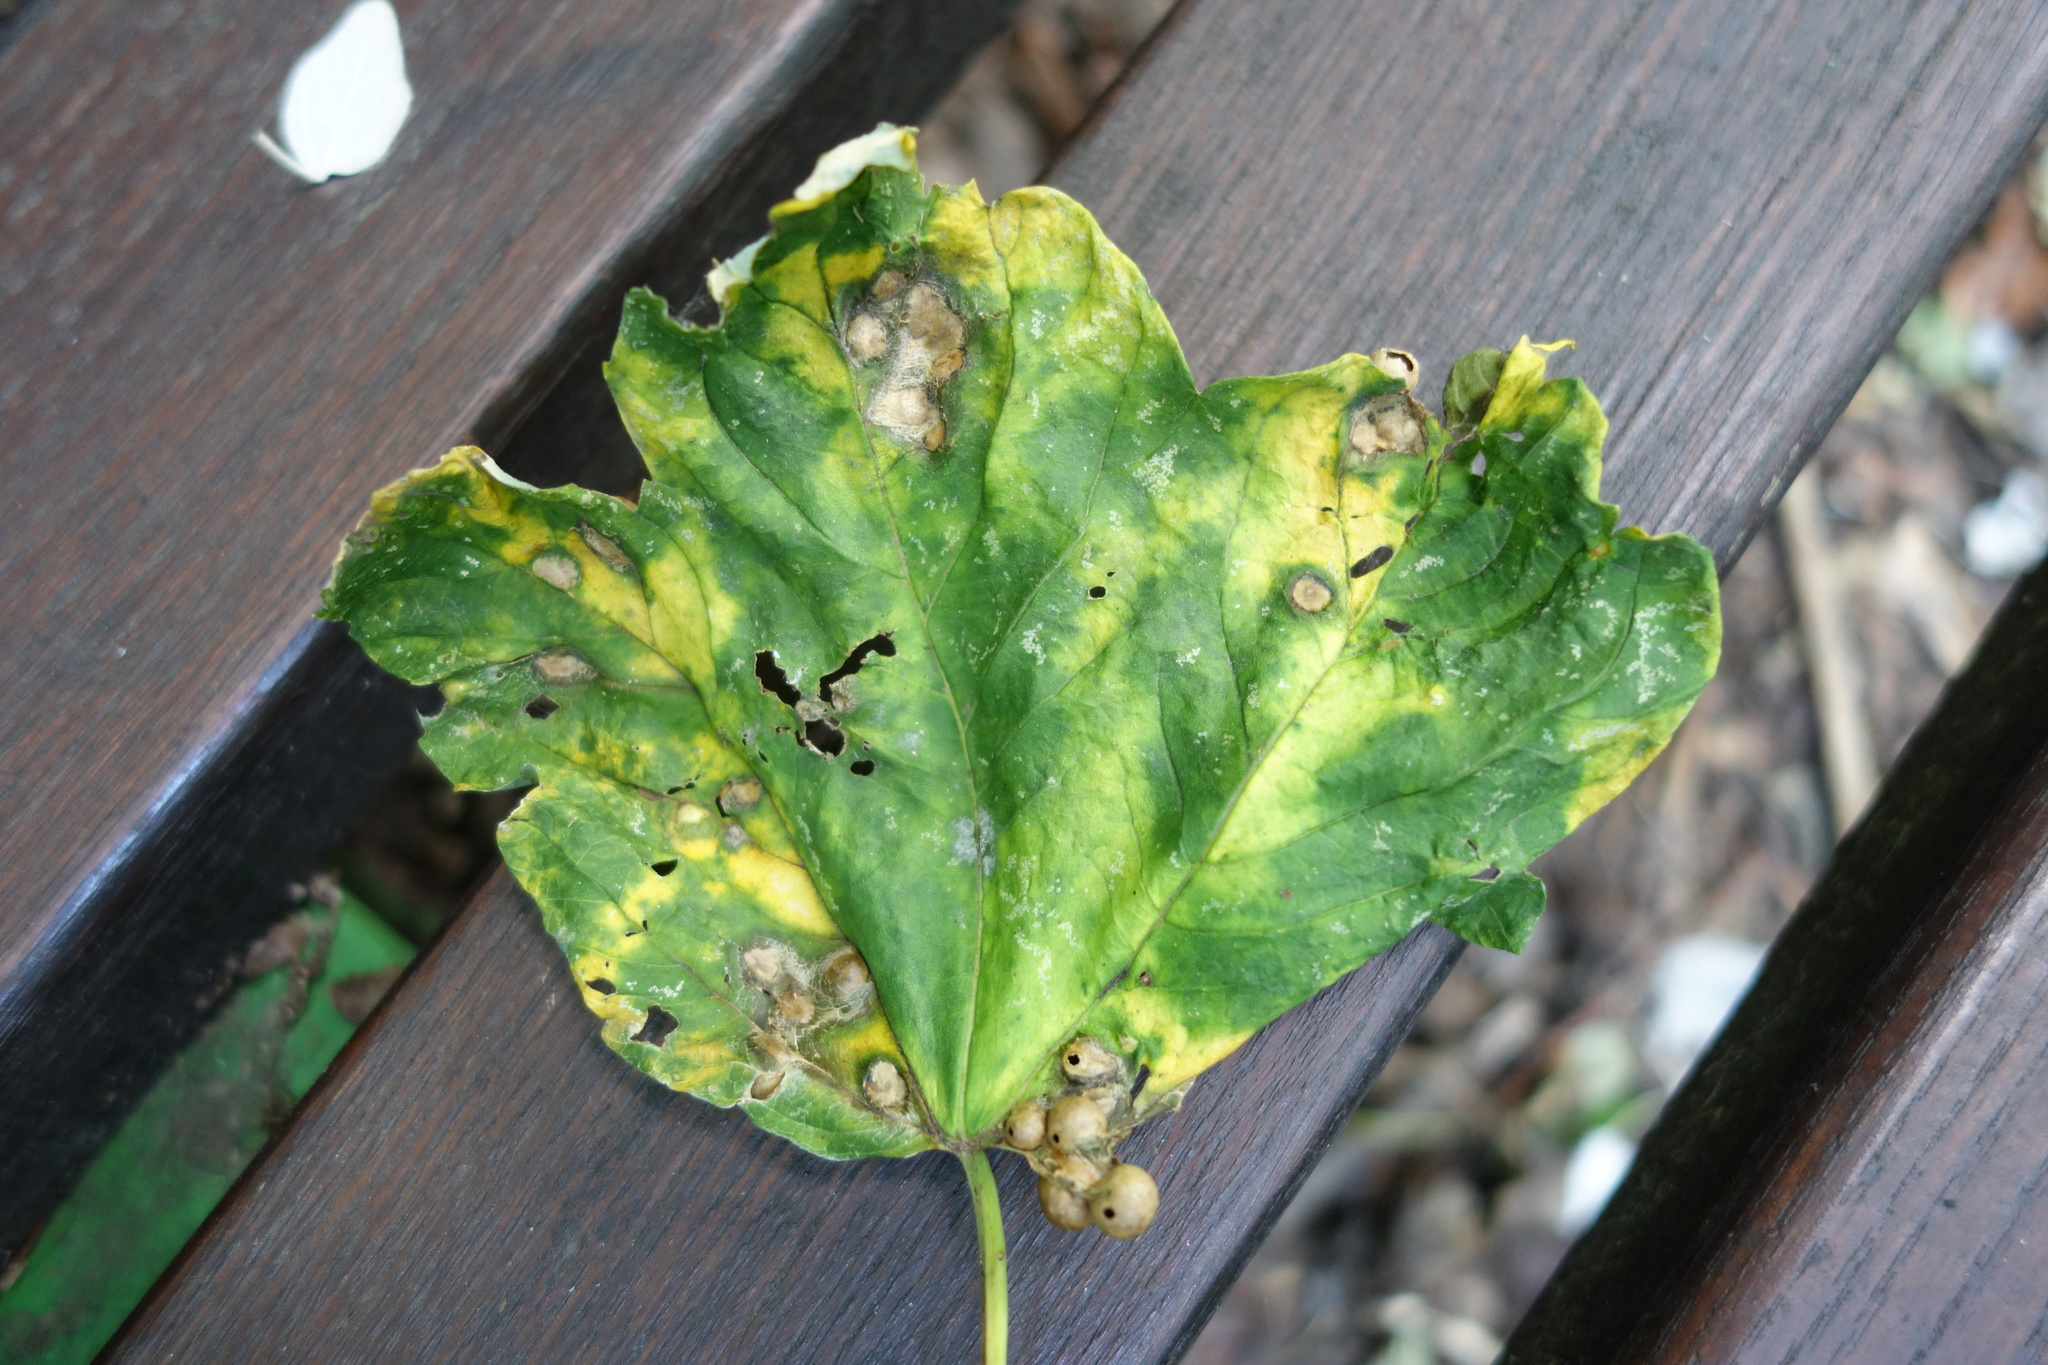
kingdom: Animalia
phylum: Arthropoda
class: Insecta
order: Hymenoptera
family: Cynipidae
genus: Pediaspis
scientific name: Pediaspis aceris
